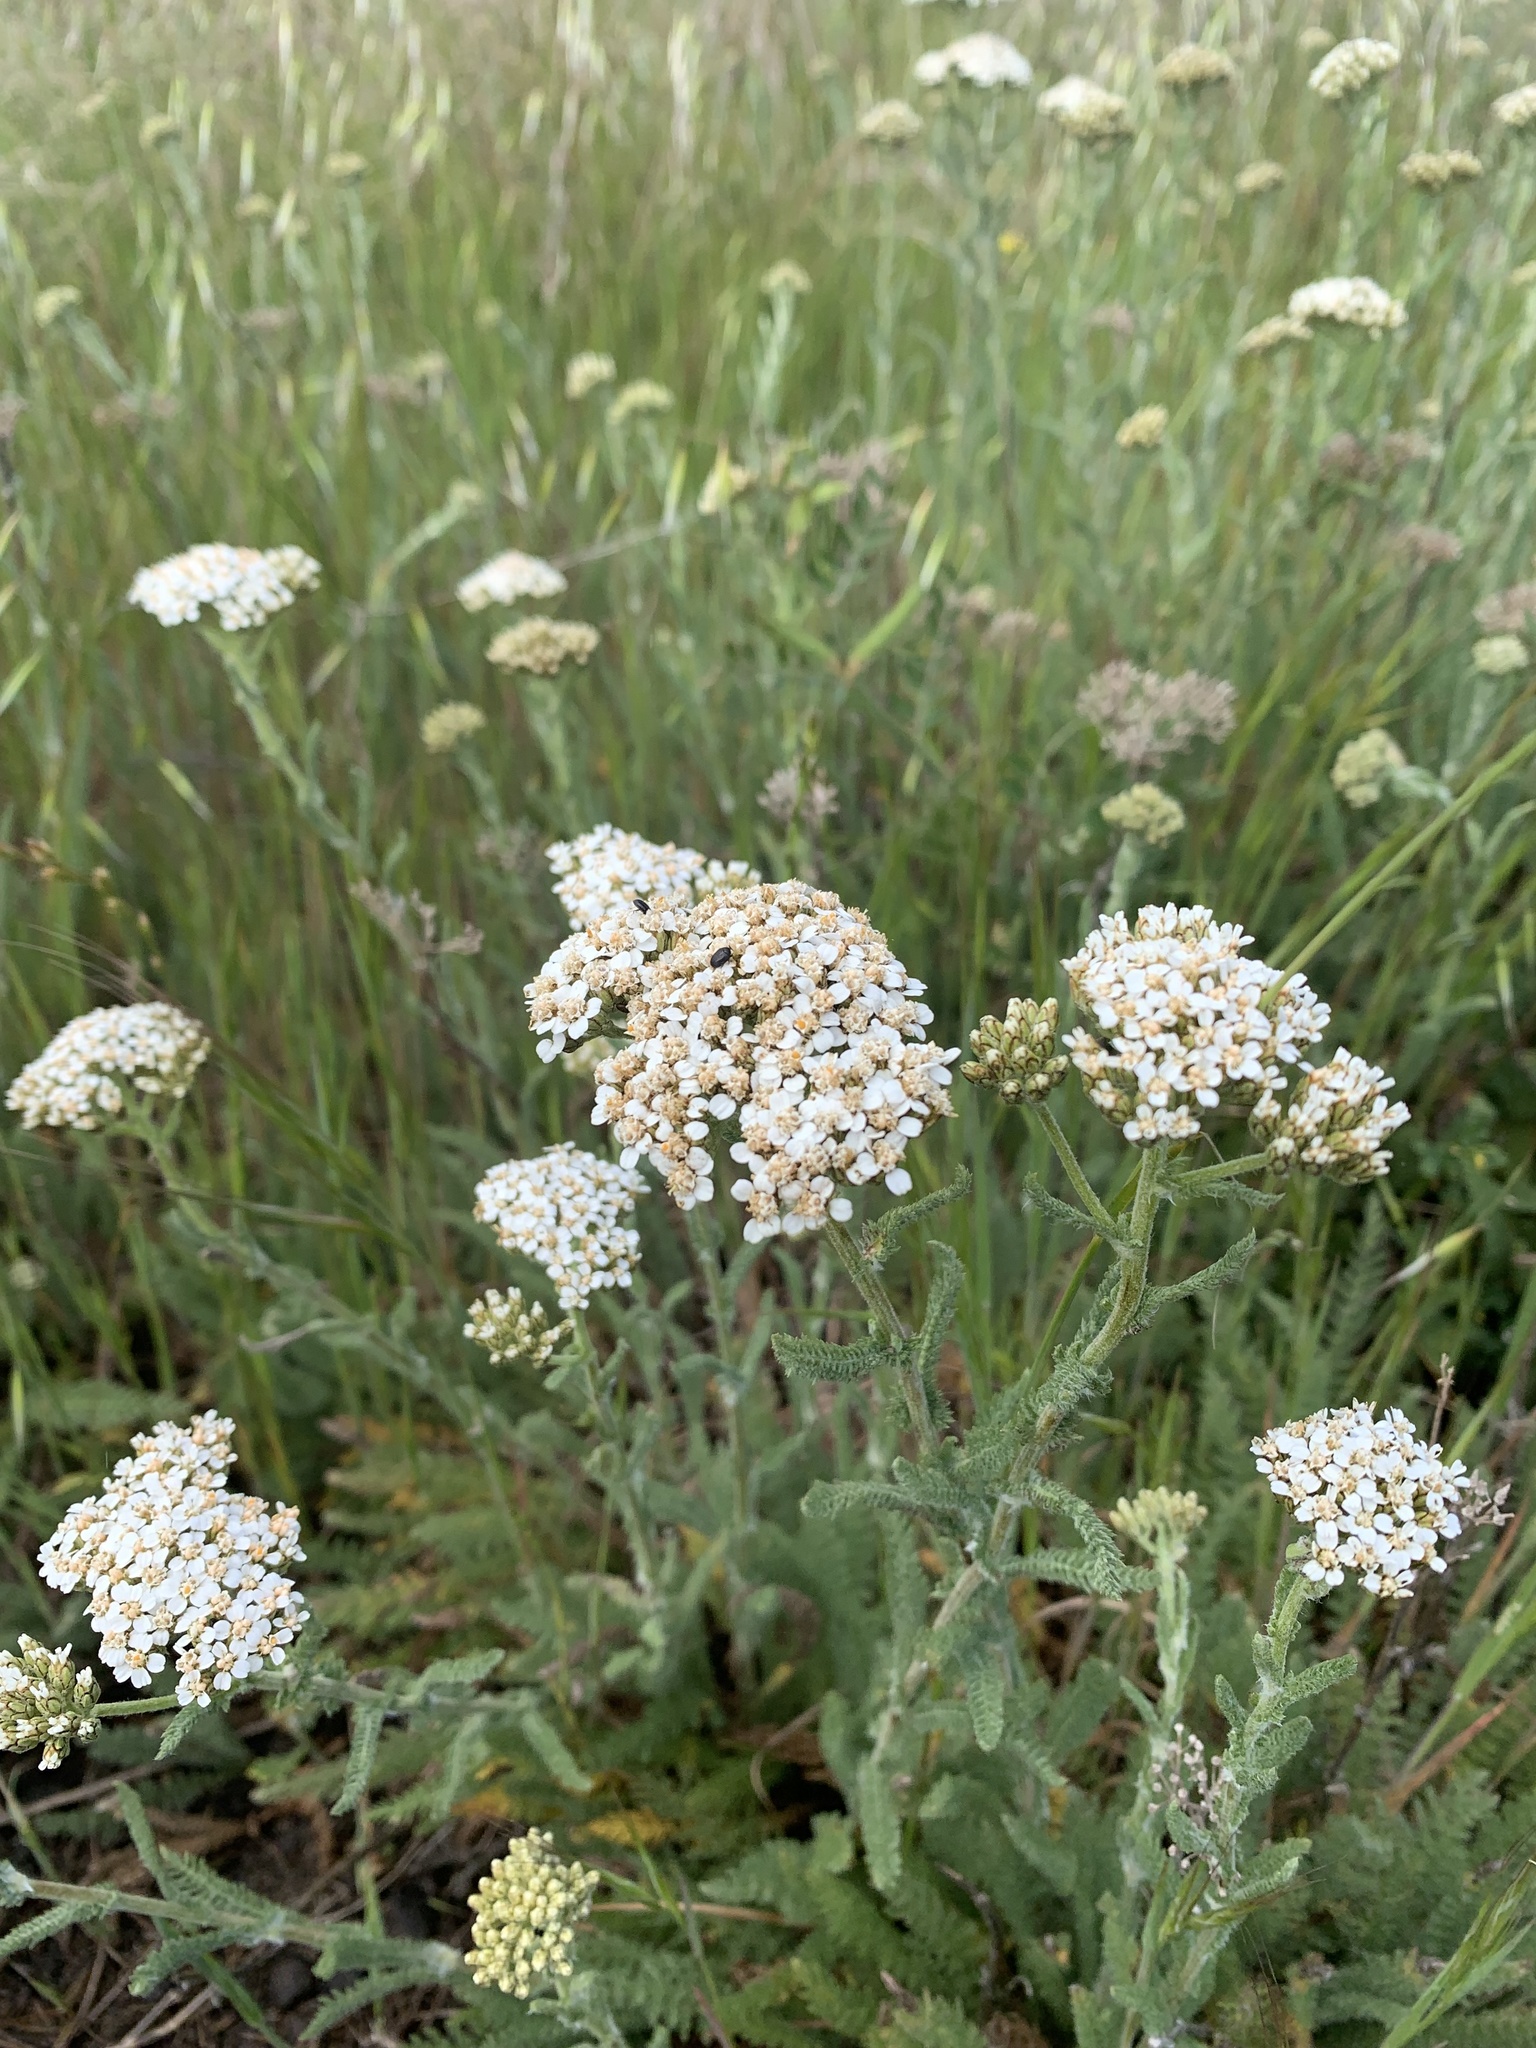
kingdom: Plantae
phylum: Tracheophyta
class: Magnoliopsida
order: Asterales
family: Asteraceae
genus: Achillea
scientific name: Achillea millefolium
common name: Yarrow
